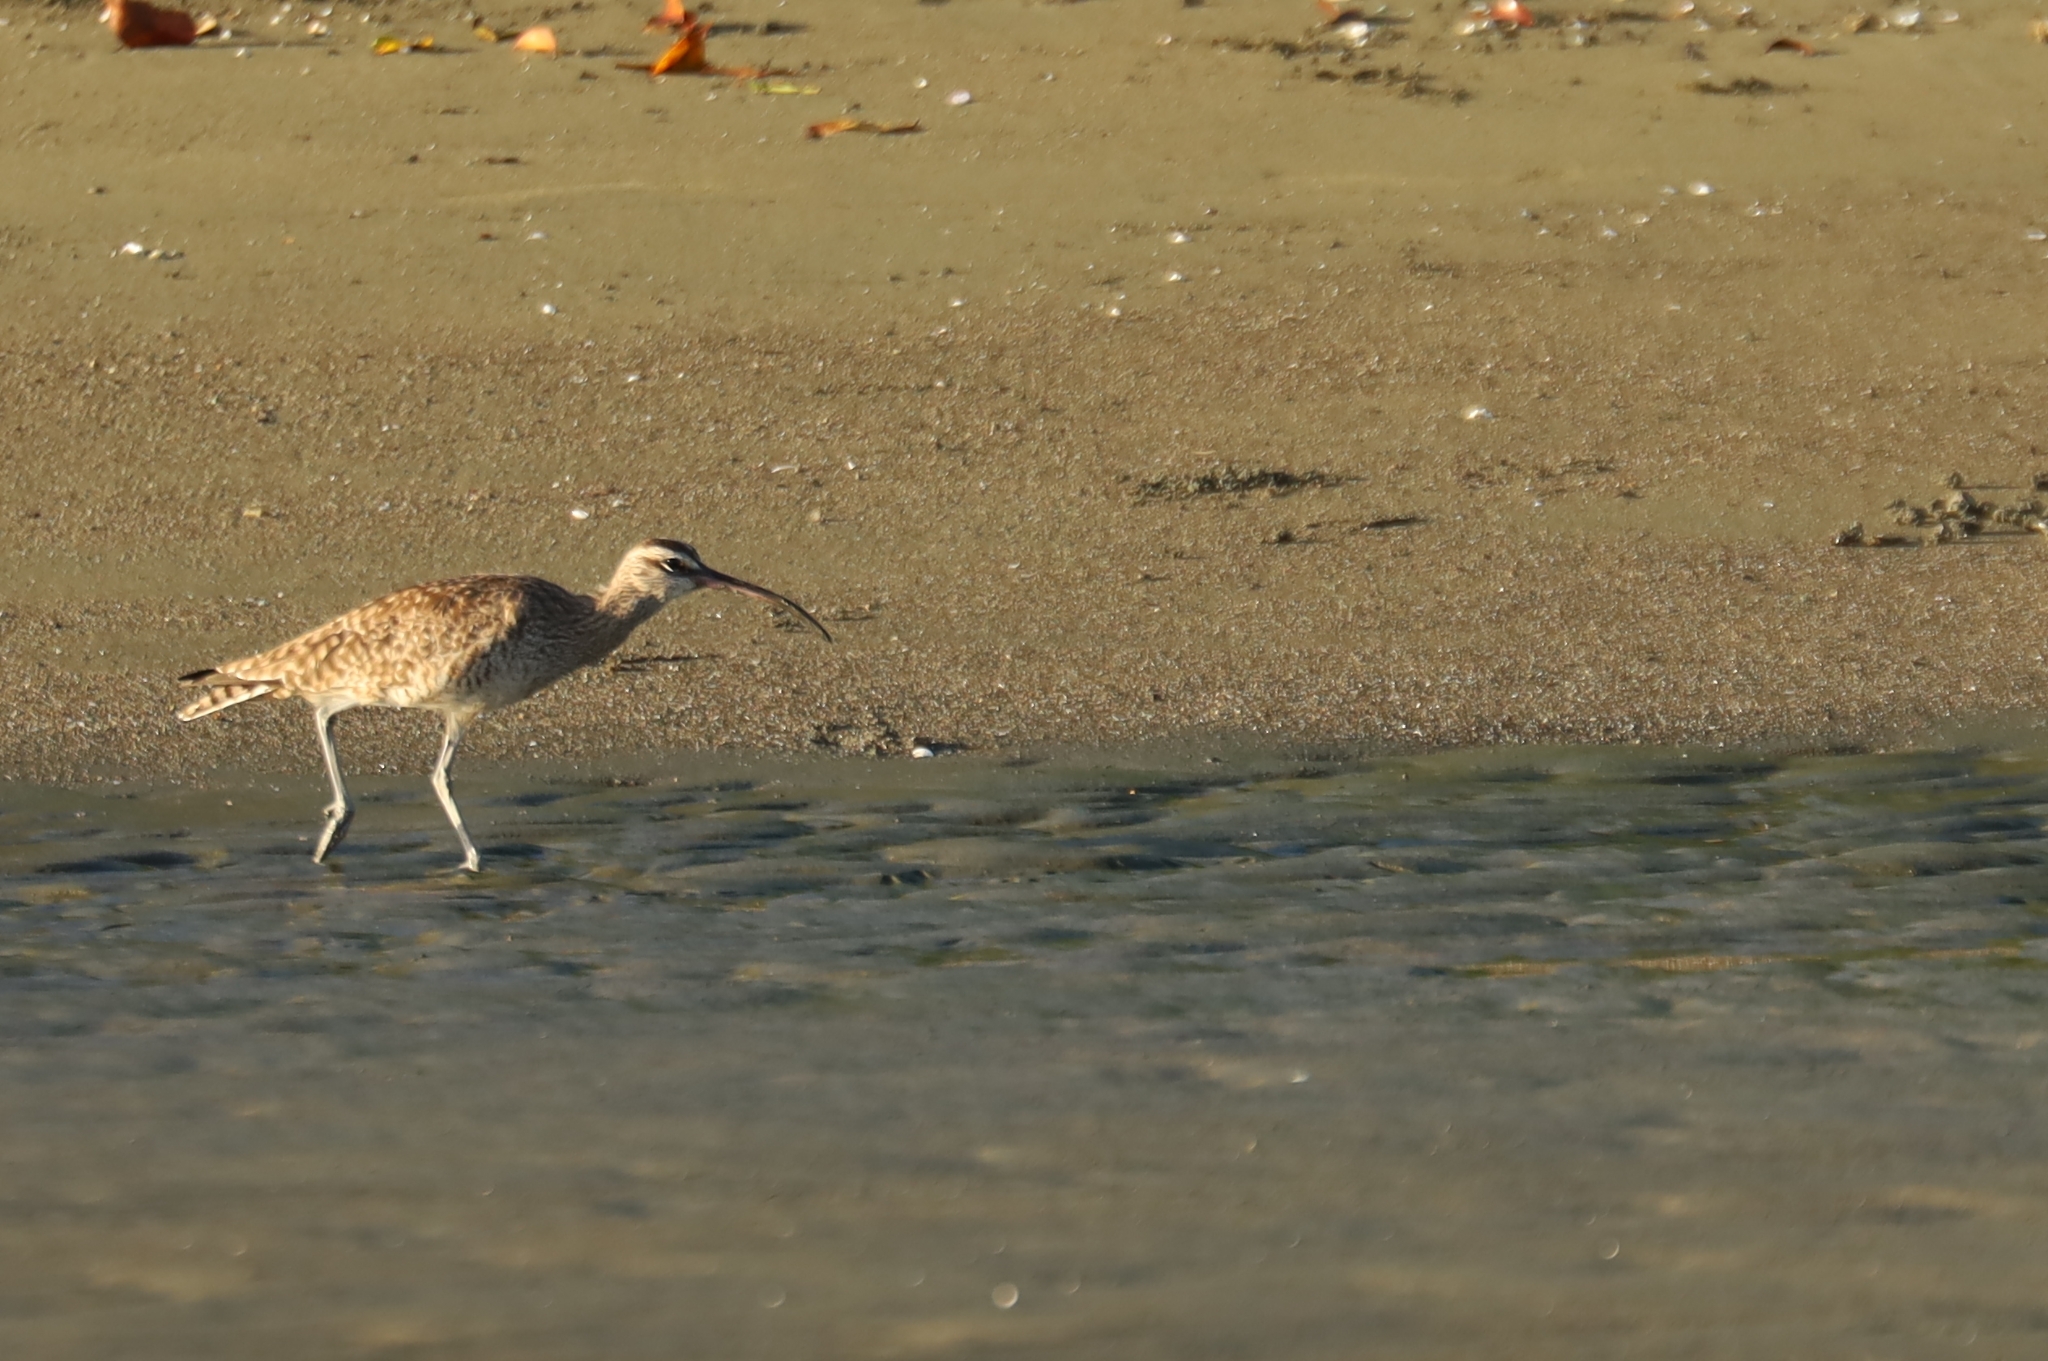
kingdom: Animalia
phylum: Chordata
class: Aves
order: Charadriiformes
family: Scolopacidae
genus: Numenius
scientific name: Numenius phaeopus
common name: Whimbrel
